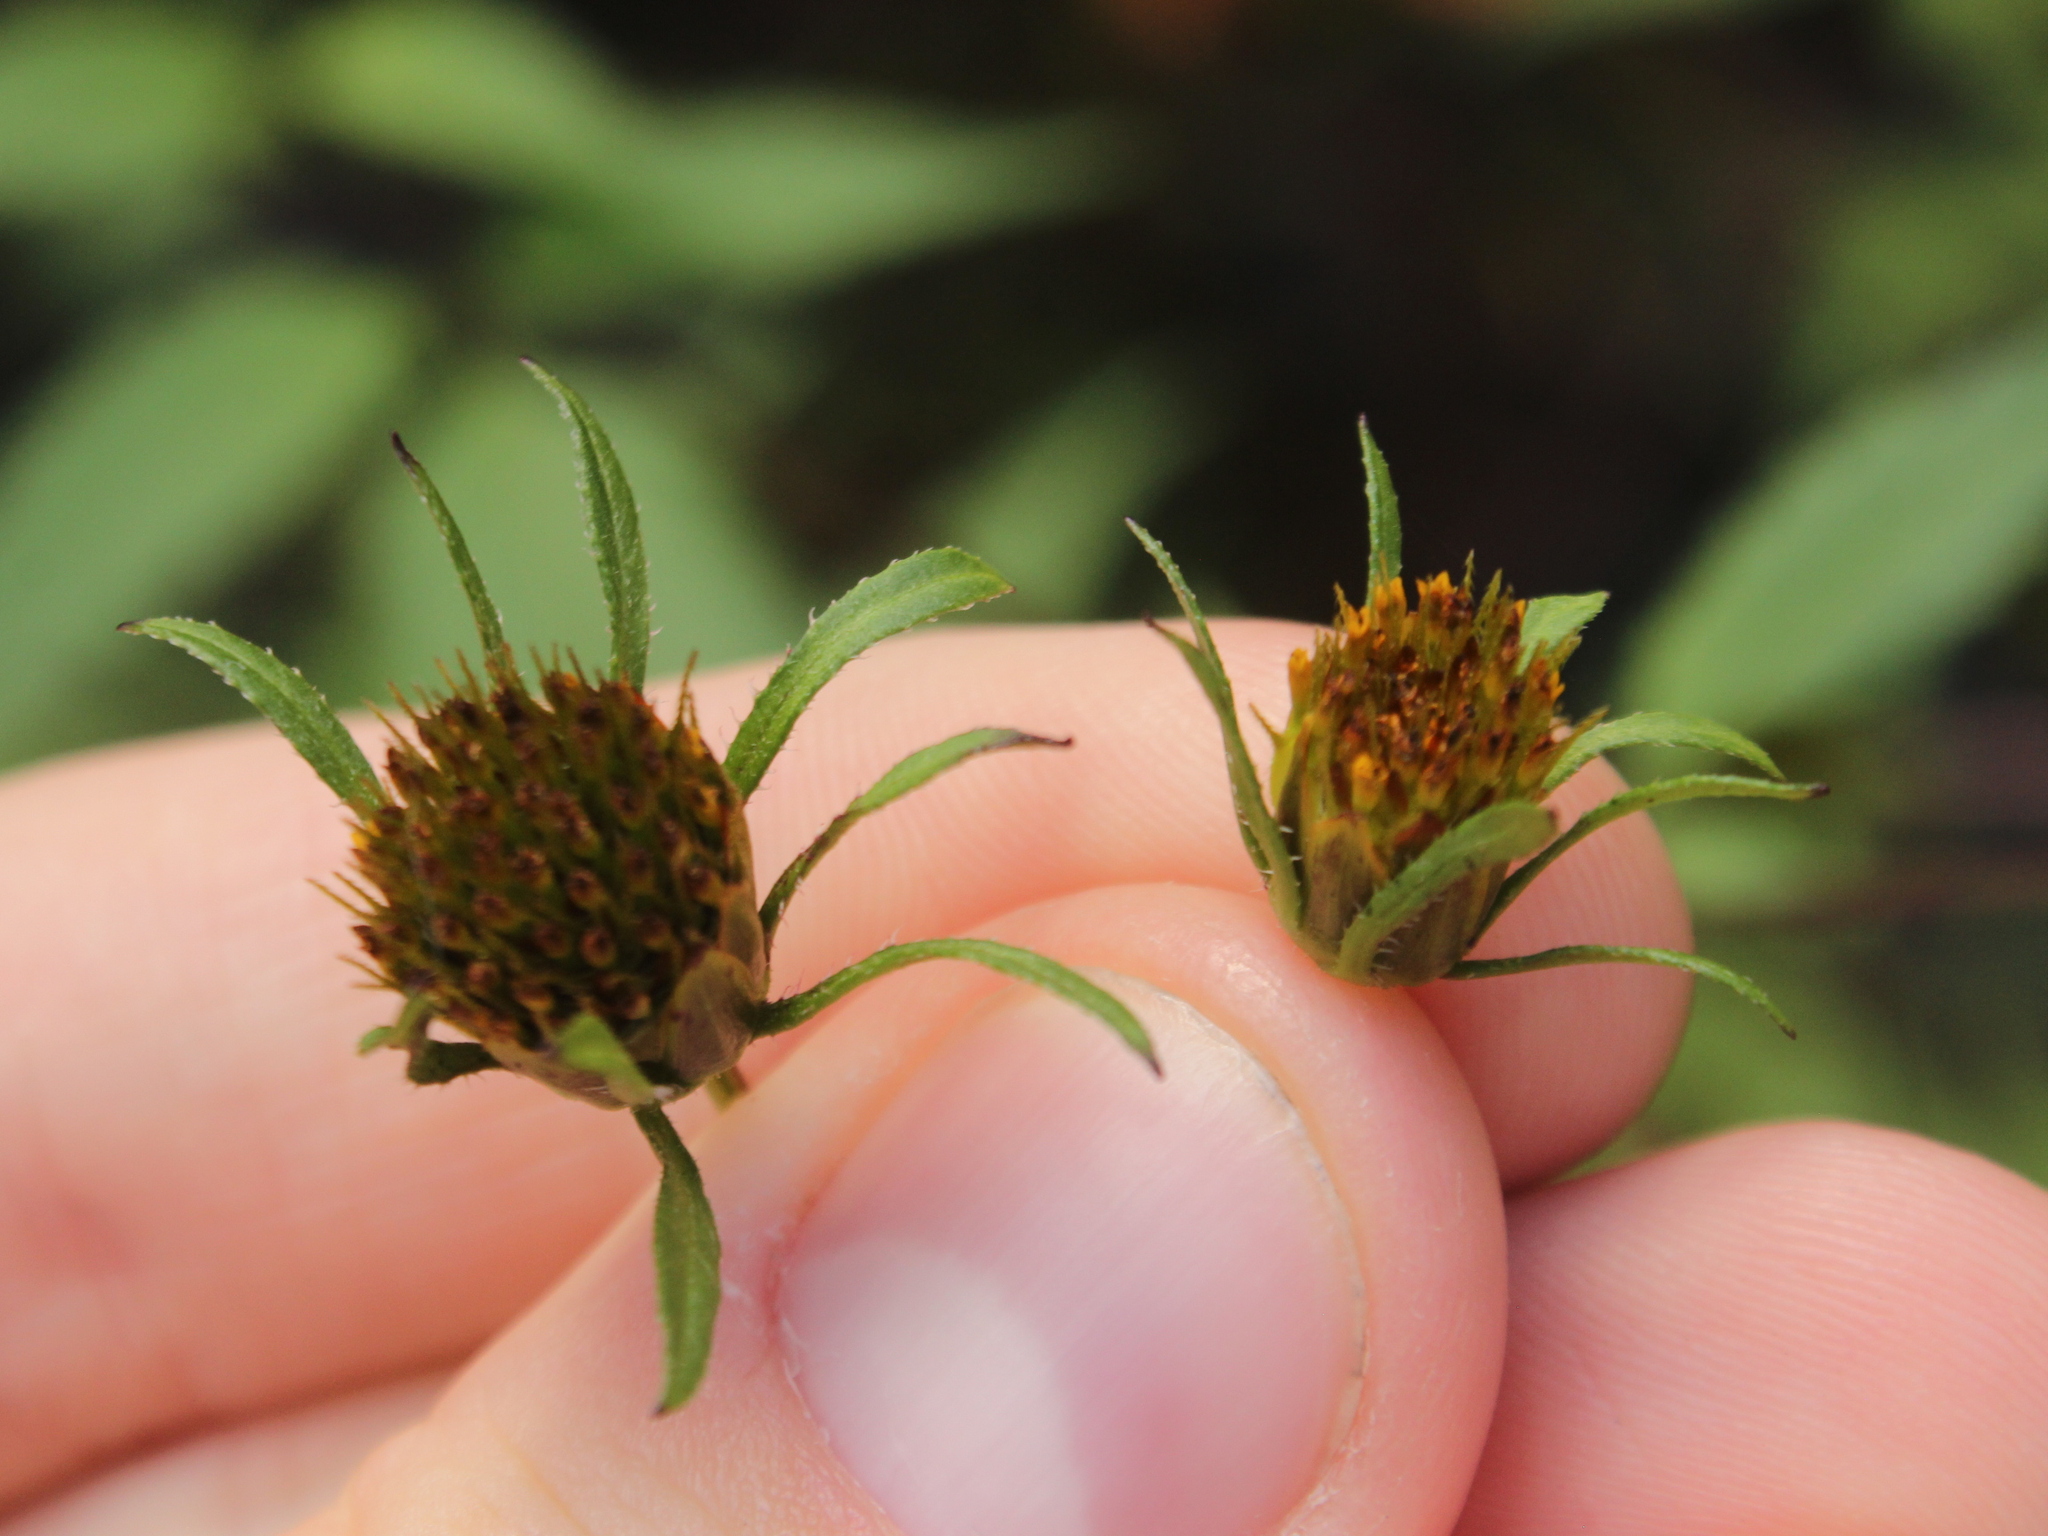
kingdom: Plantae
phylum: Tracheophyta
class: Magnoliopsida
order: Asterales
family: Asteraceae
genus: Bidens
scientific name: Bidens frondosa
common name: Beggarticks
